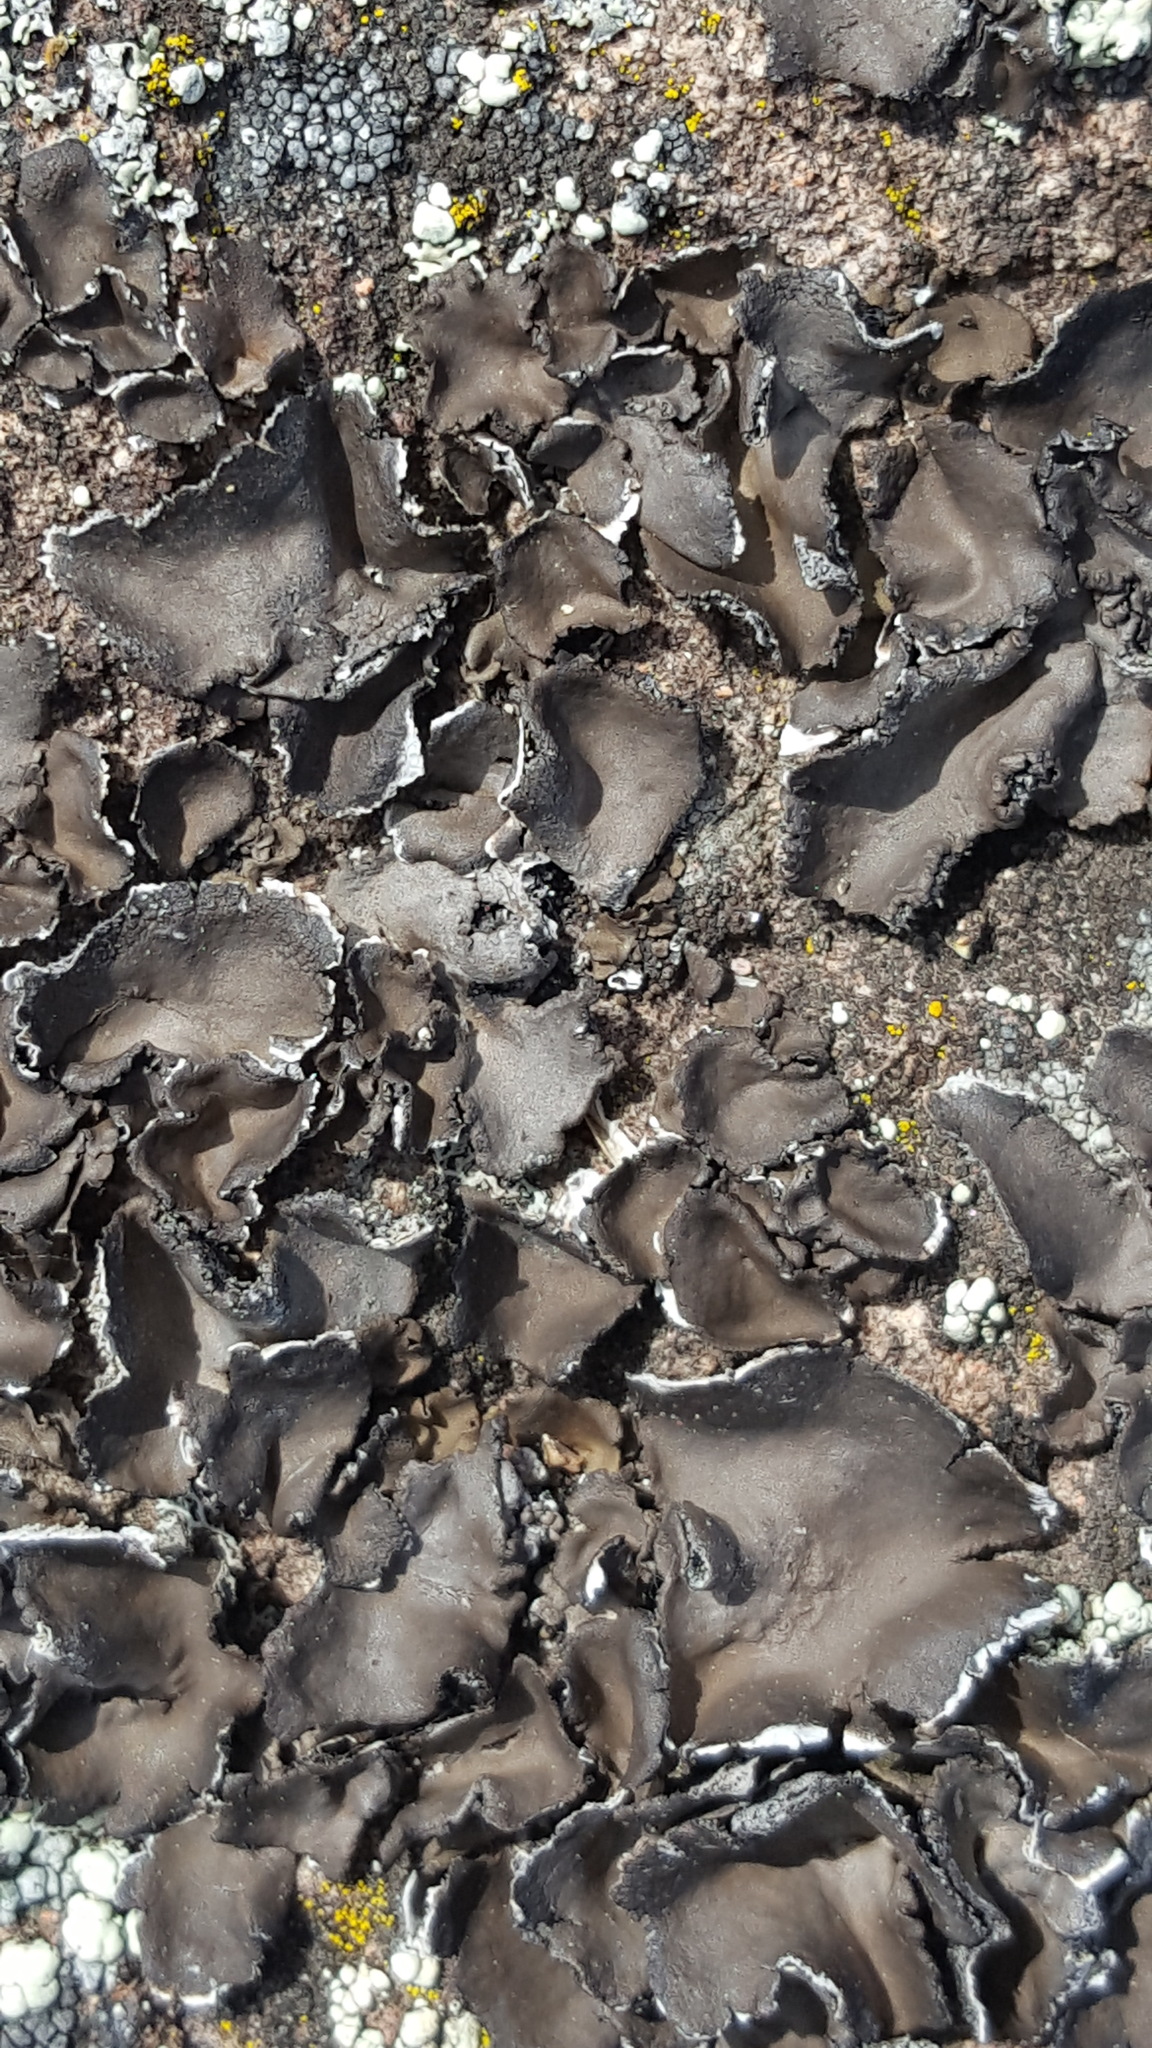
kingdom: Fungi
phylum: Ascomycota
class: Lecanoromycetes
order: Umbilicariales
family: Umbilicariaceae
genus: Umbilicaria
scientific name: Umbilicaria deusta
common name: Peppered rock tripe
